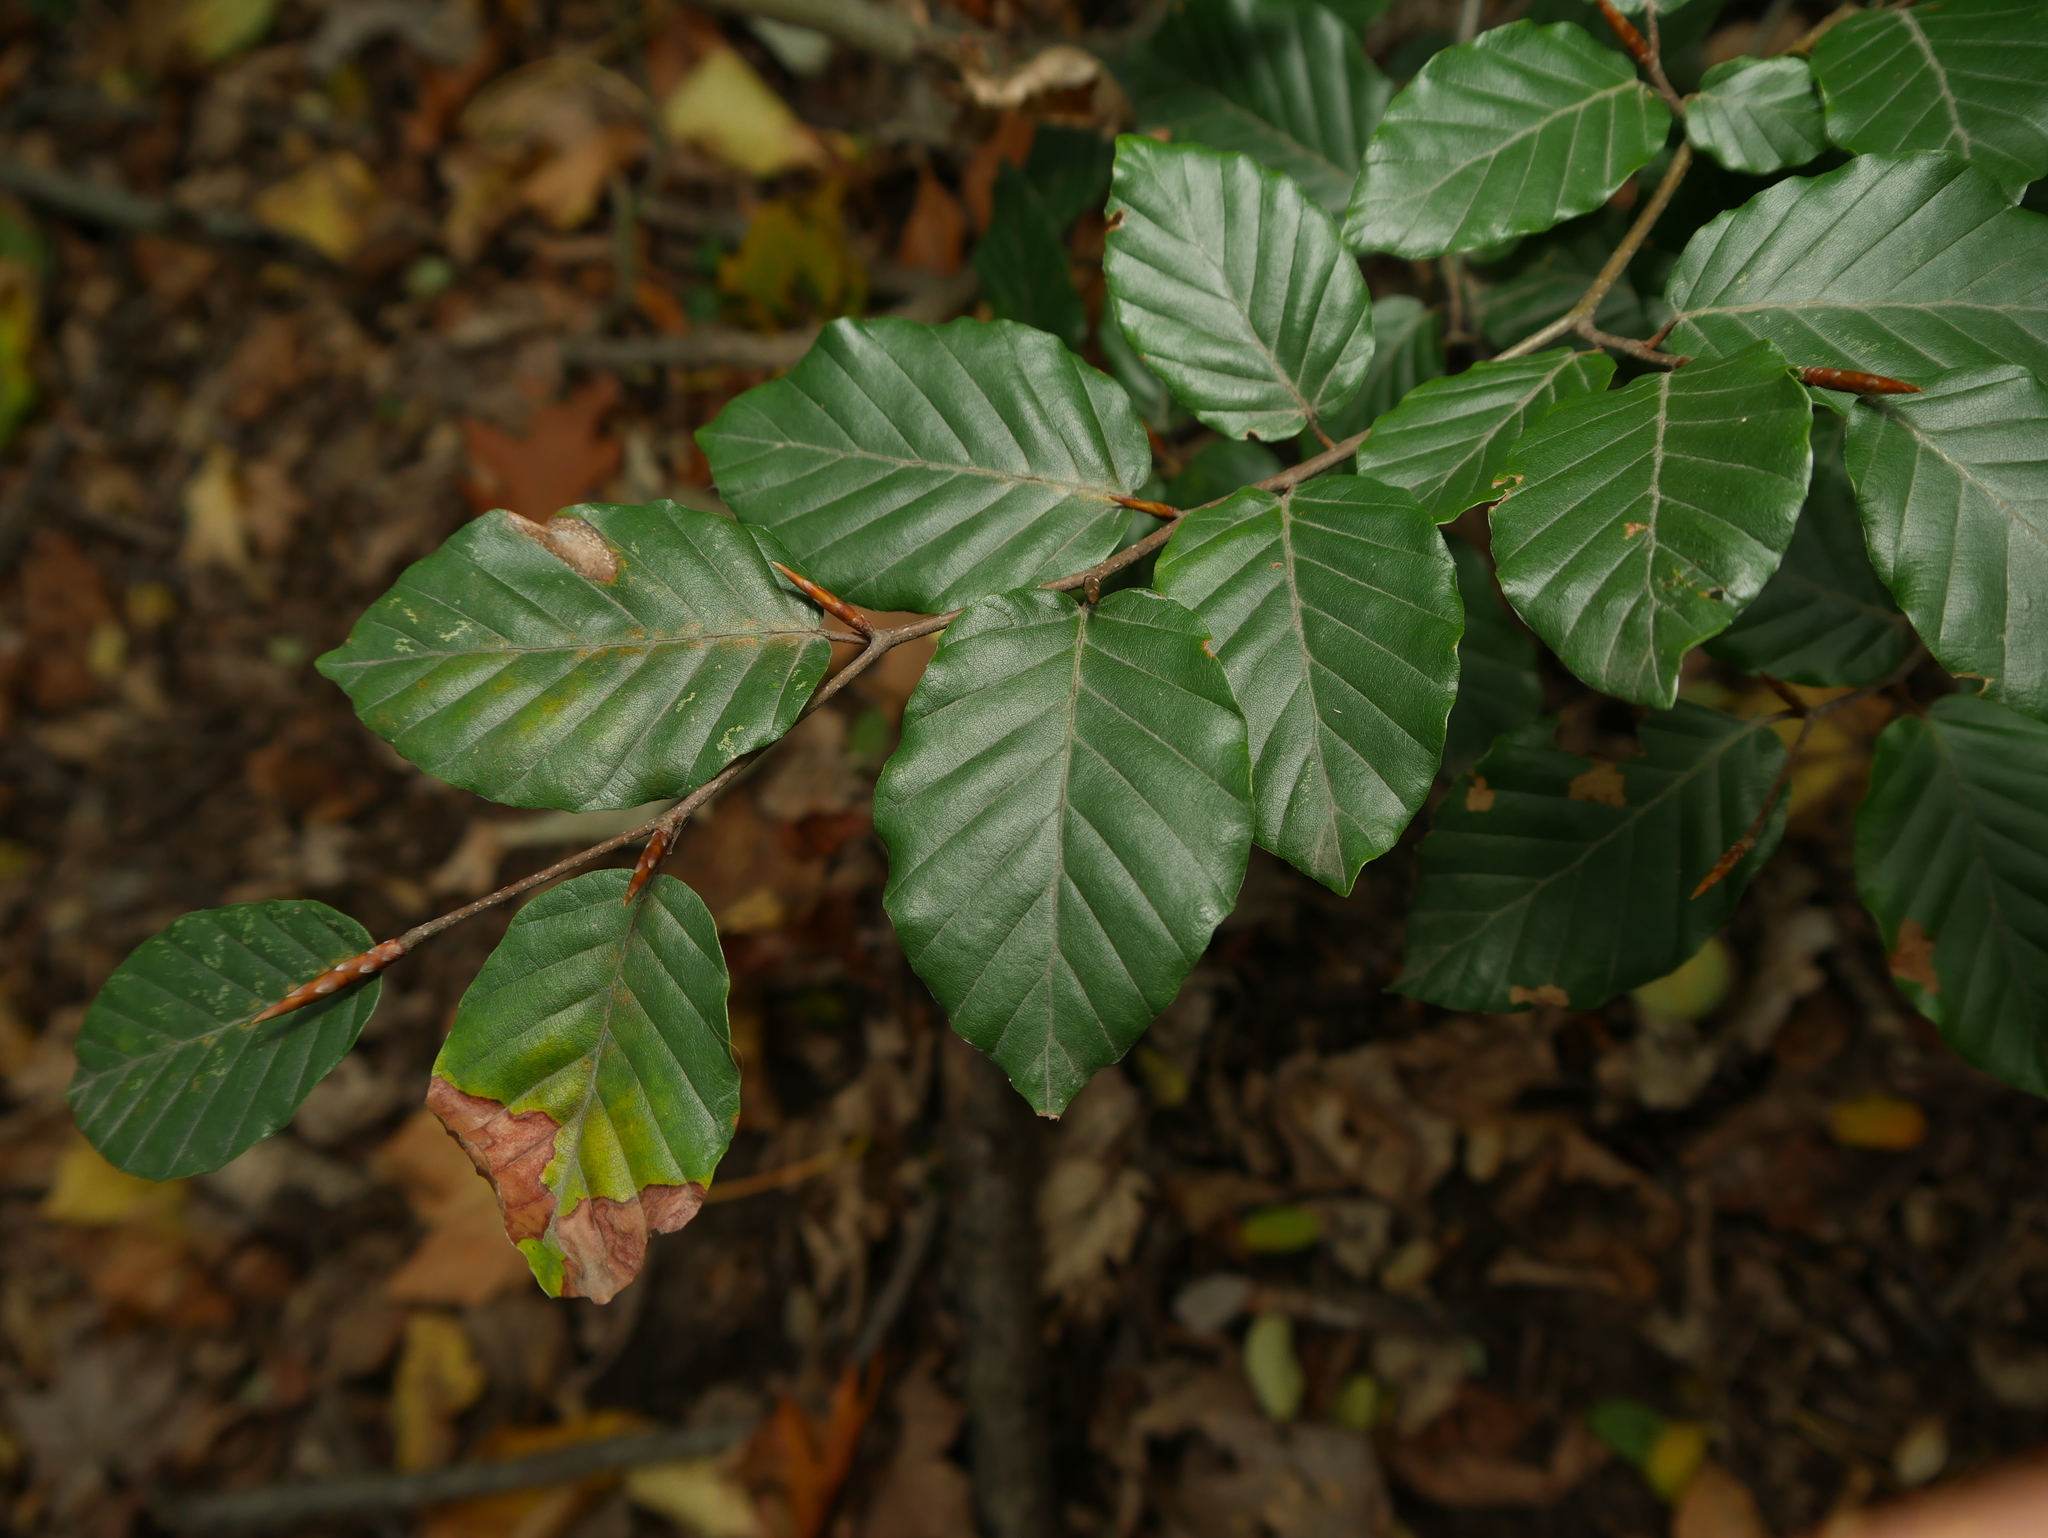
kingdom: Plantae
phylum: Tracheophyta
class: Magnoliopsida
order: Fagales
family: Fagaceae
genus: Fagus
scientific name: Fagus sylvatica
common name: Beech
